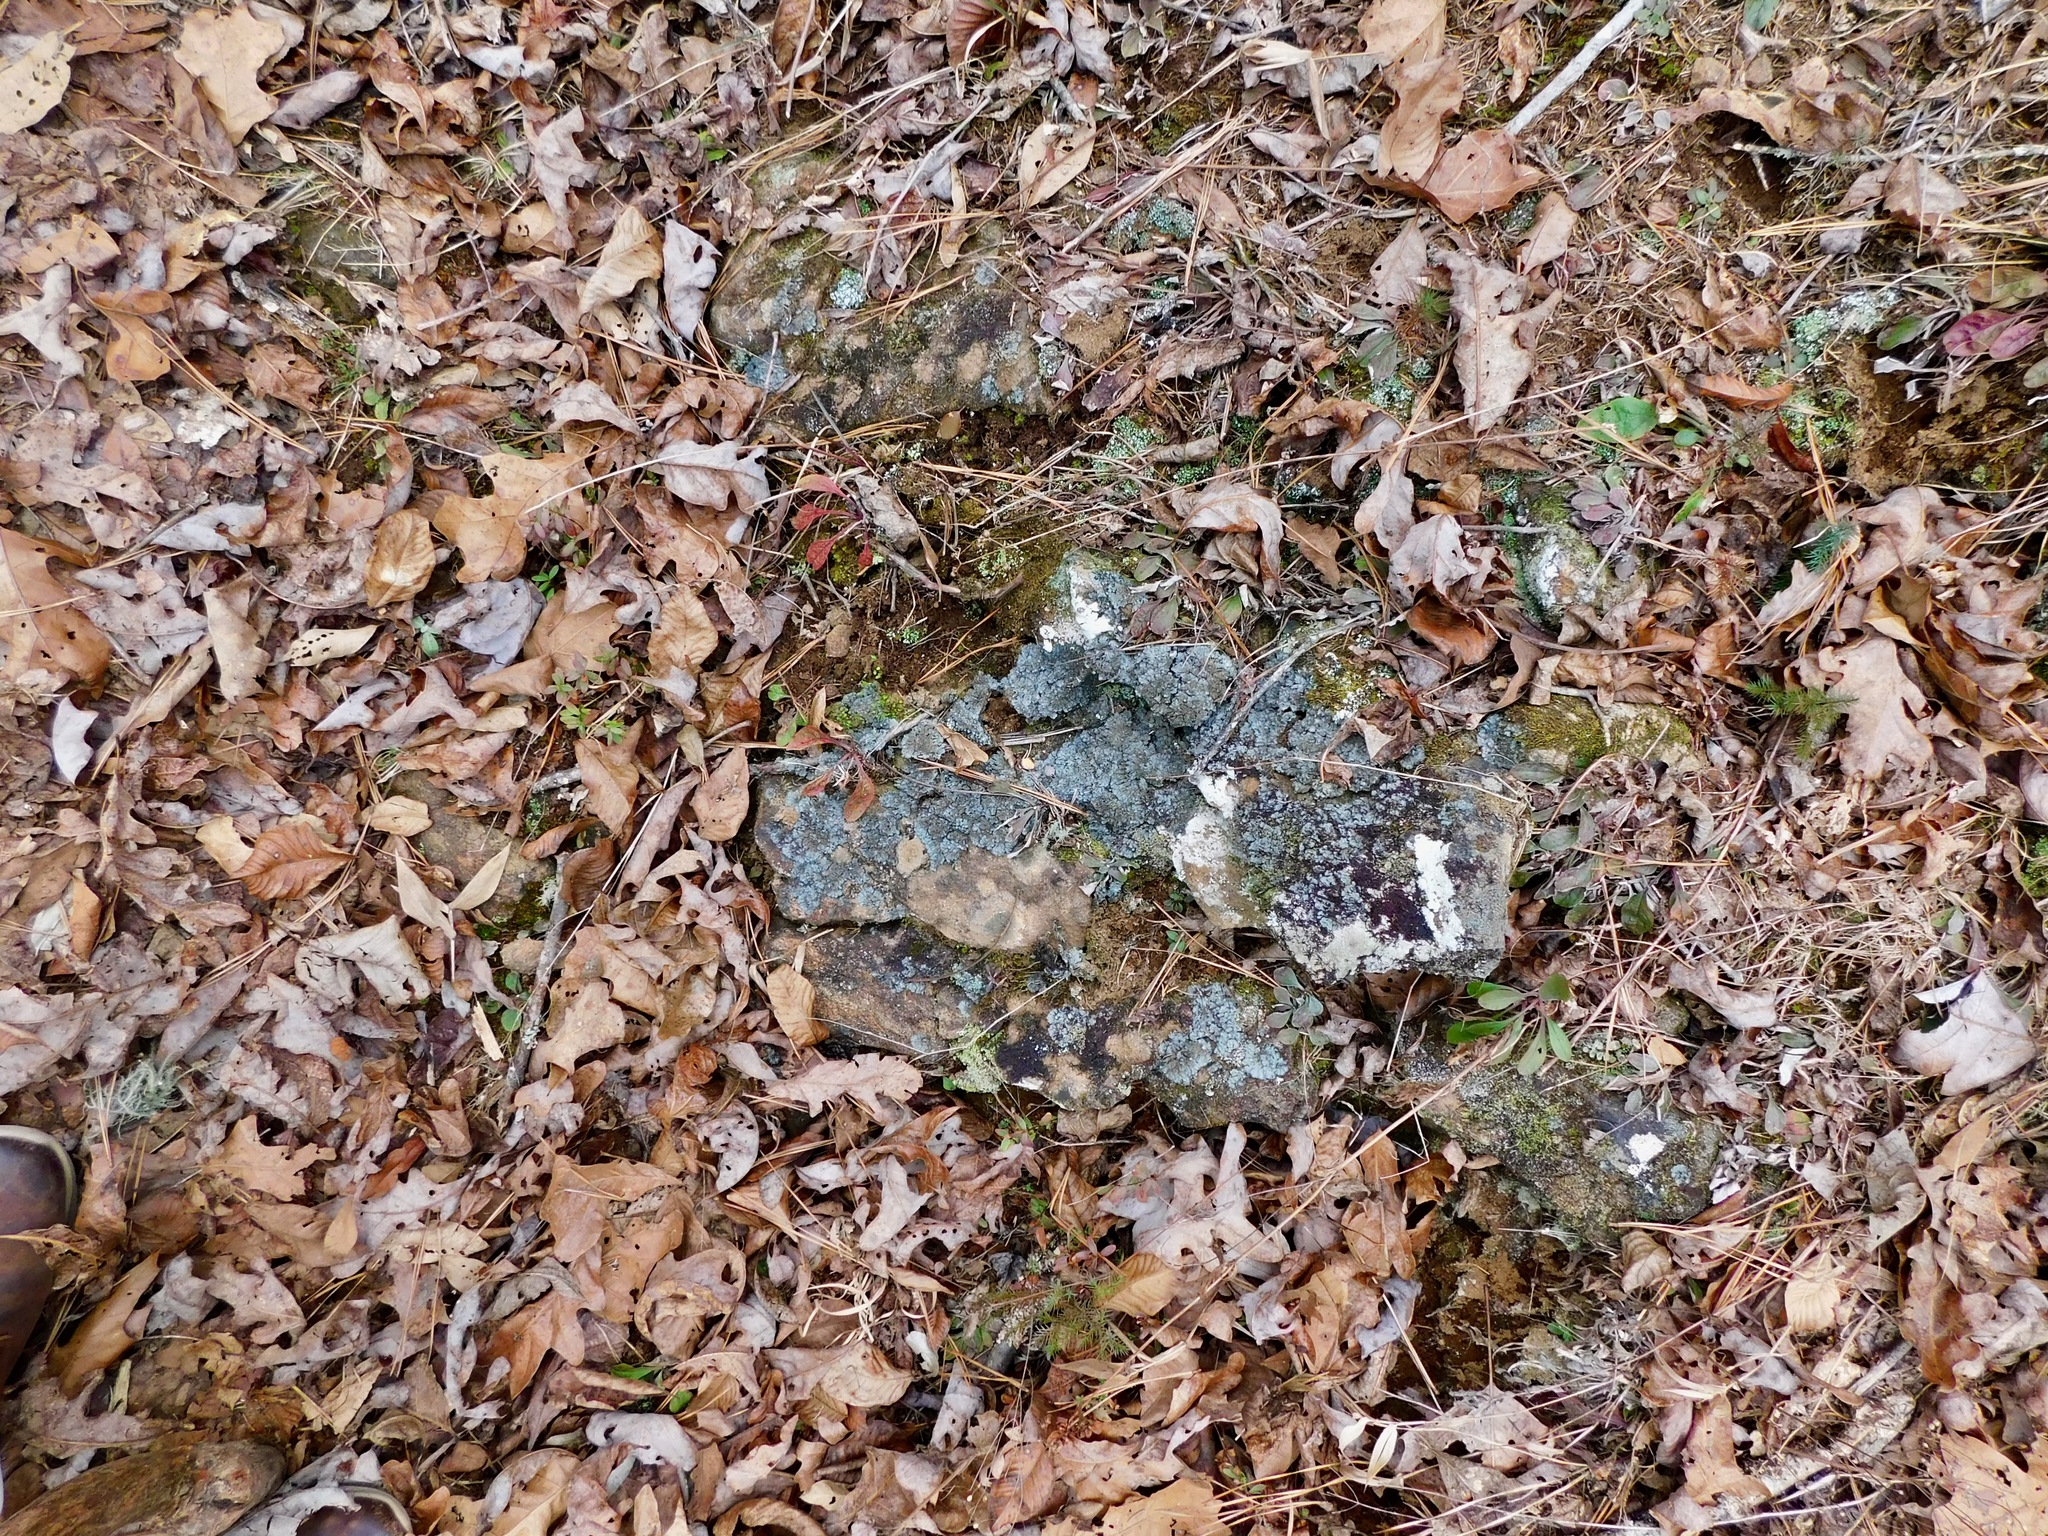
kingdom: Fungi
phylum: Ascomycota
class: Lecanoromycetes
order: Peltigerales
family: Coccocarpiaceae
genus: Coccocarpia
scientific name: Coccocarpia palmicola
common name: Salted shell lichen
